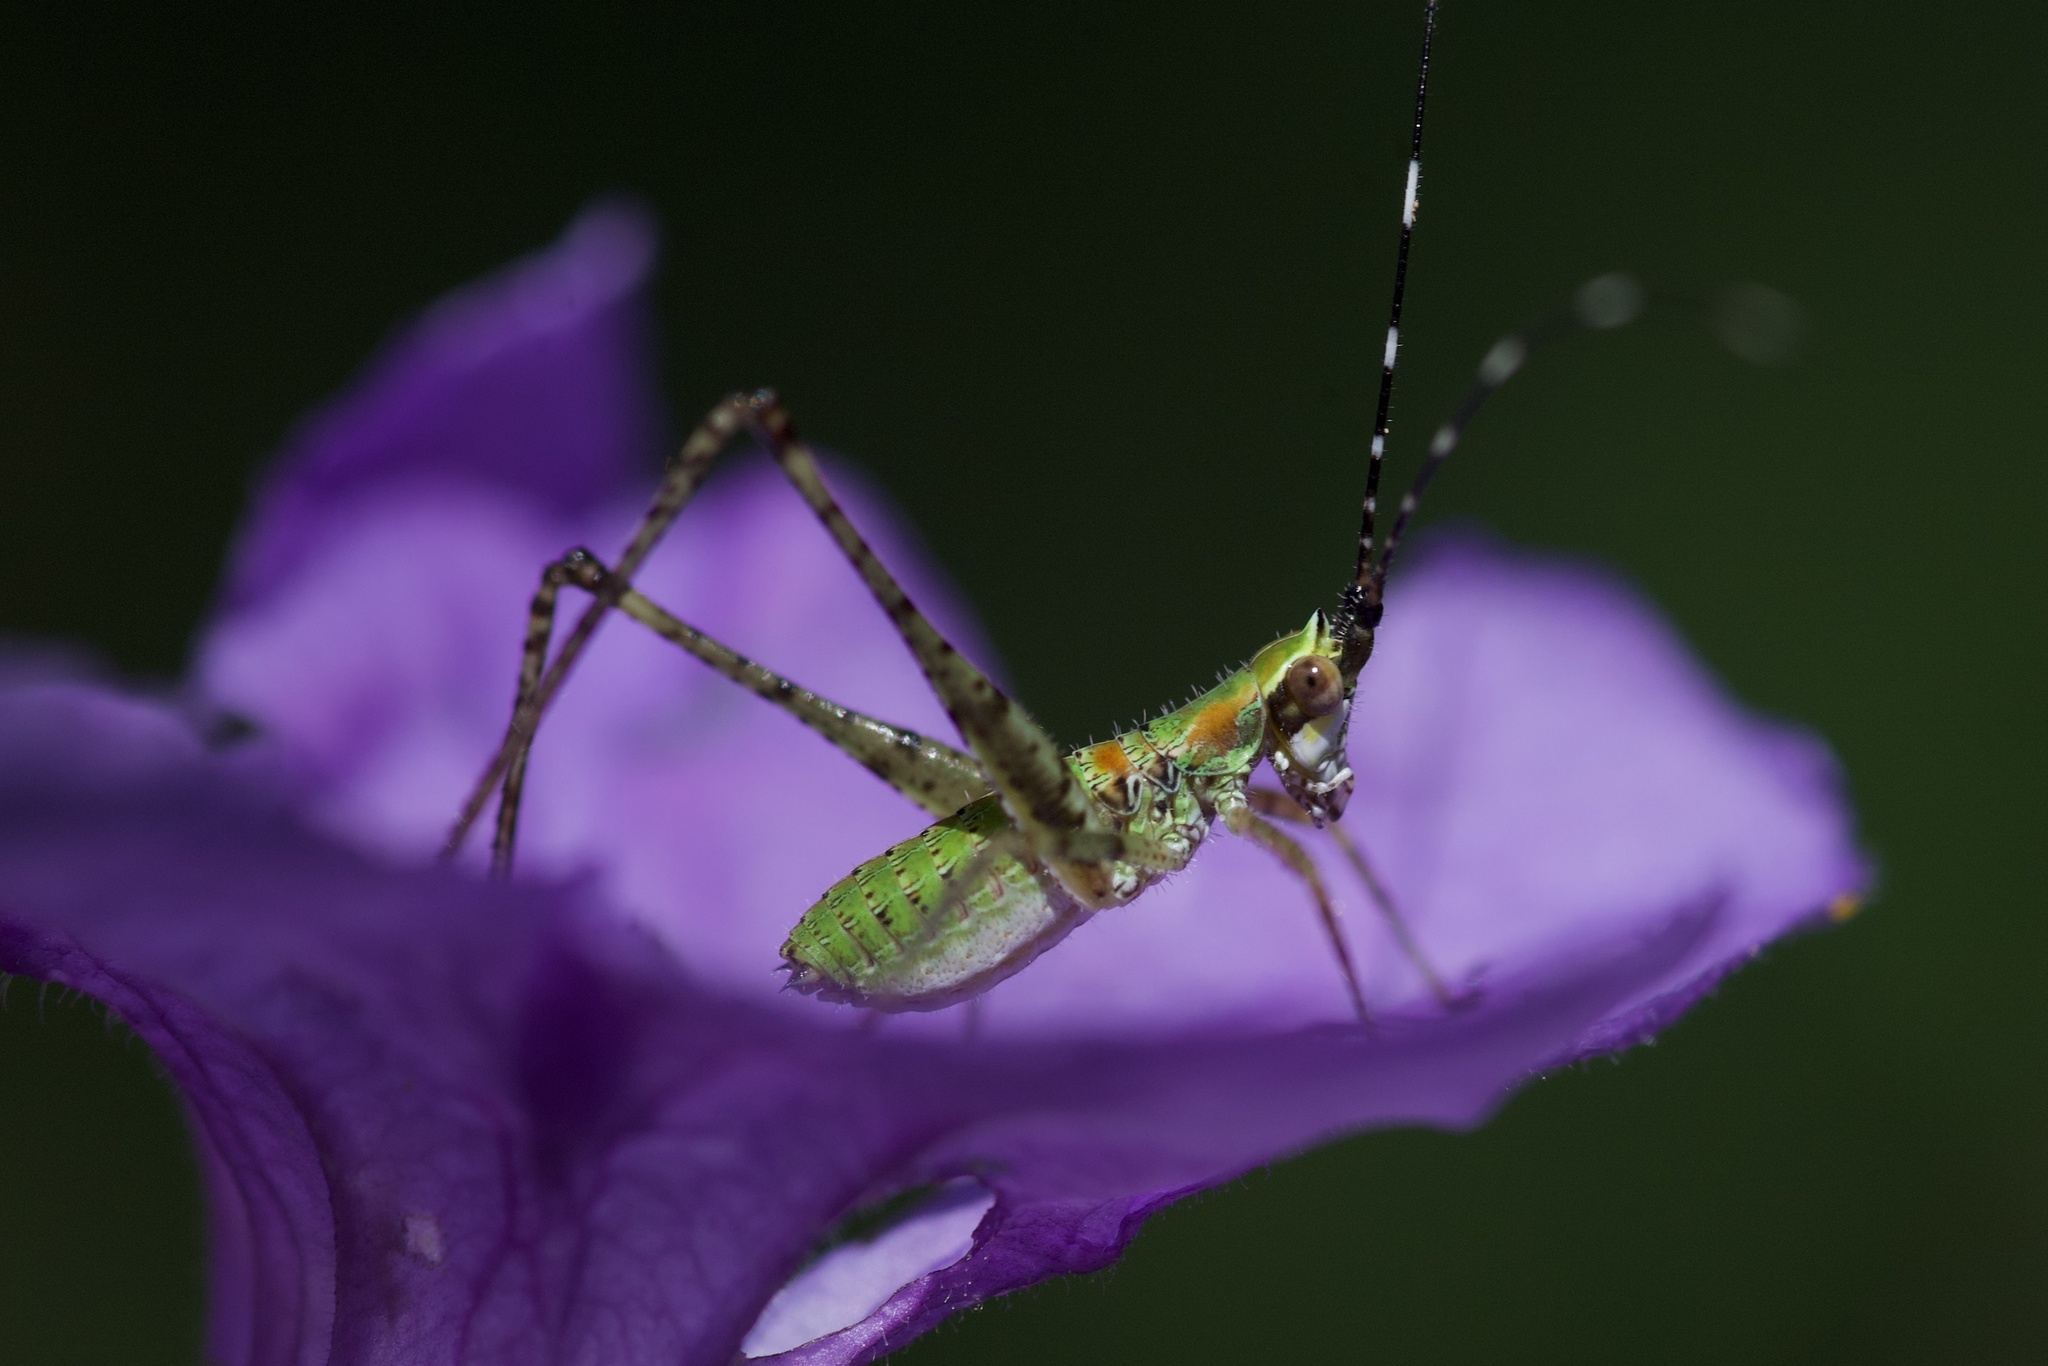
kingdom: Animalia
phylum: Arthropoda
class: Insecta
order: Orthoptera
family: Tettigoniidae
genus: Scudderia
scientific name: Scudderia furcata
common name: Fork-tailed bush katydid
